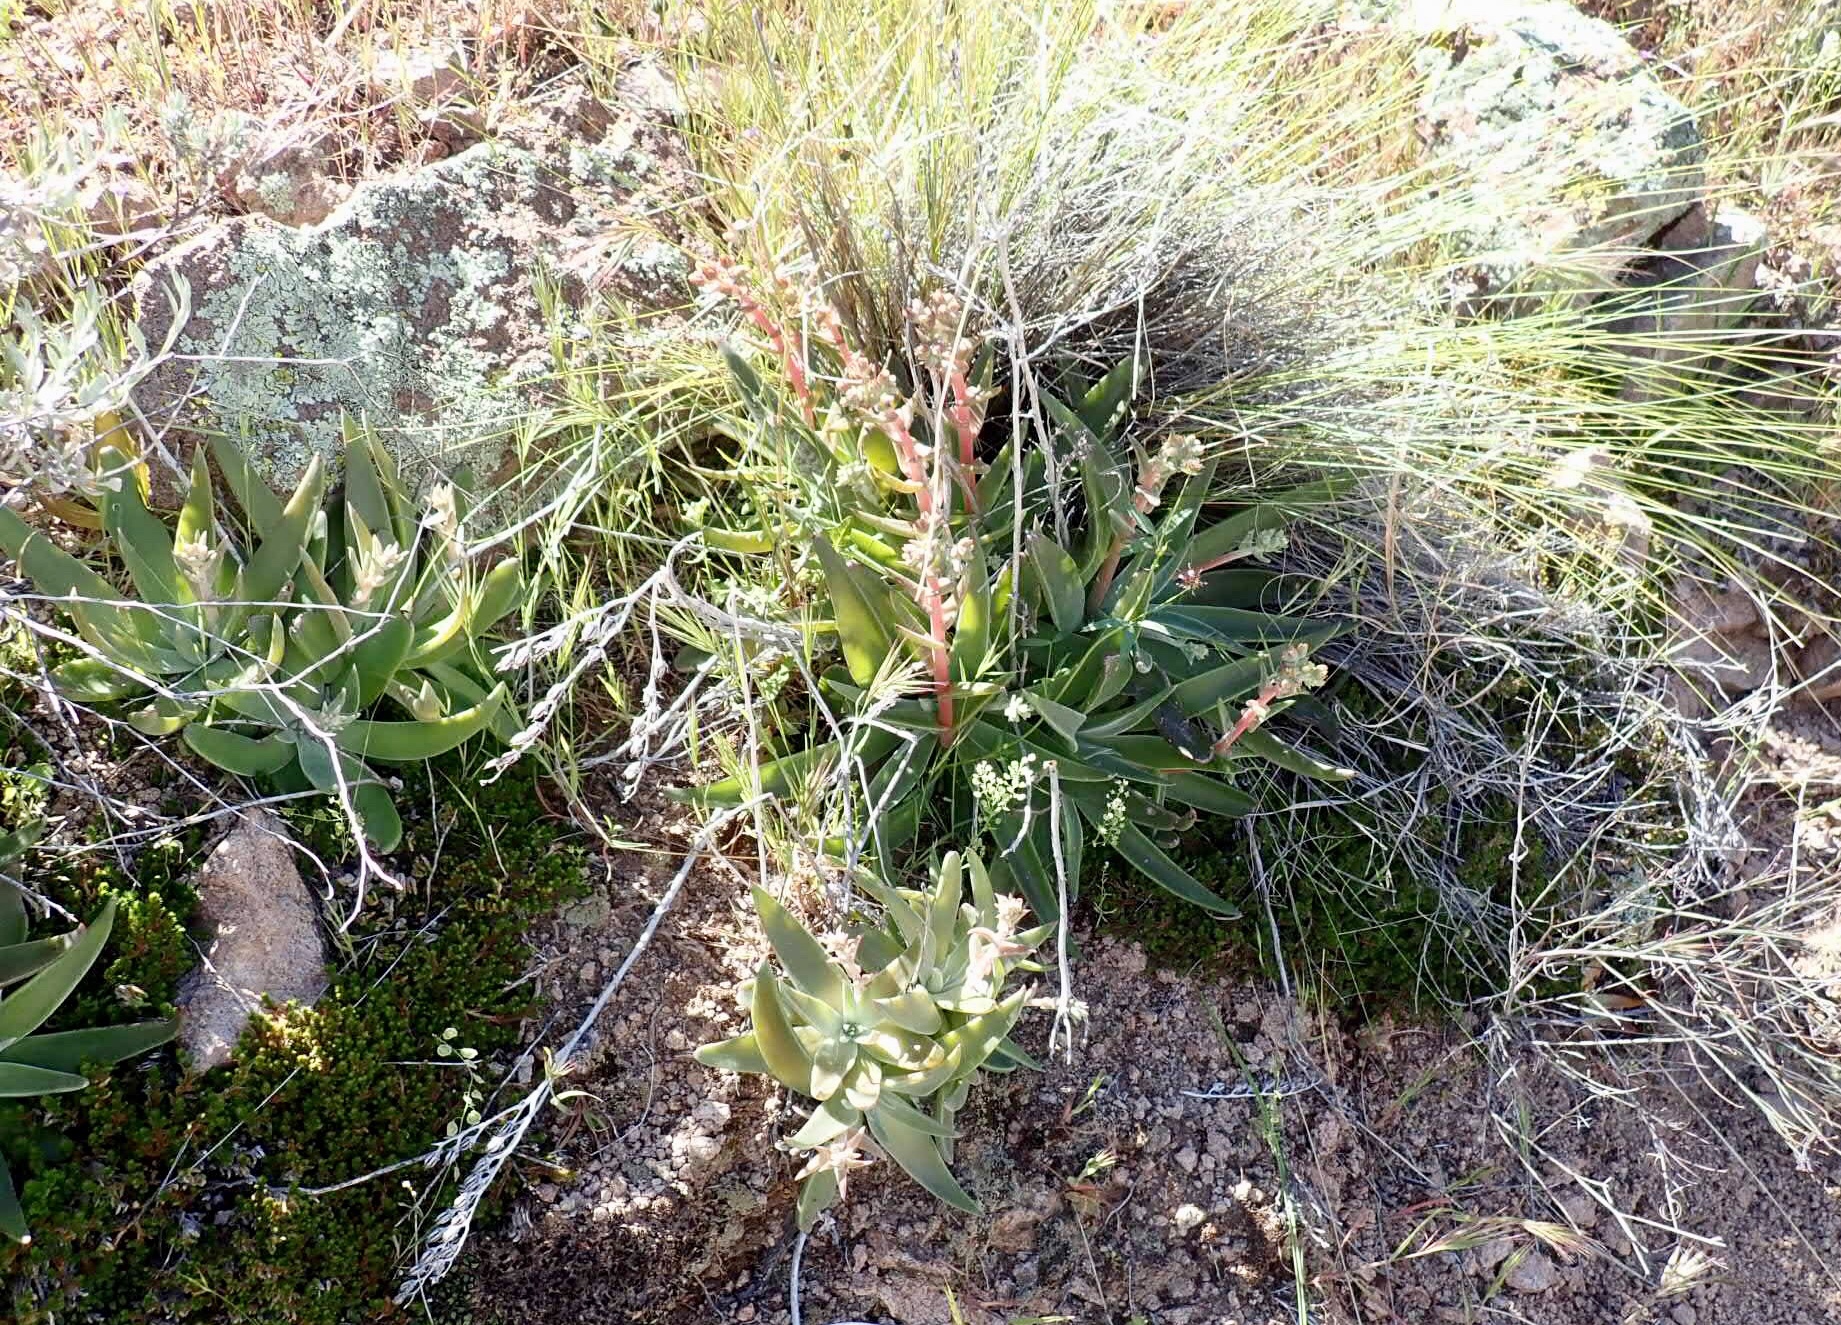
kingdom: Plantae
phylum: Tracheophyta
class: Magnoliopsida
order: Saxifragales
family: Crassulaceae
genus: Dudleya
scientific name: Dudleya collomiae
